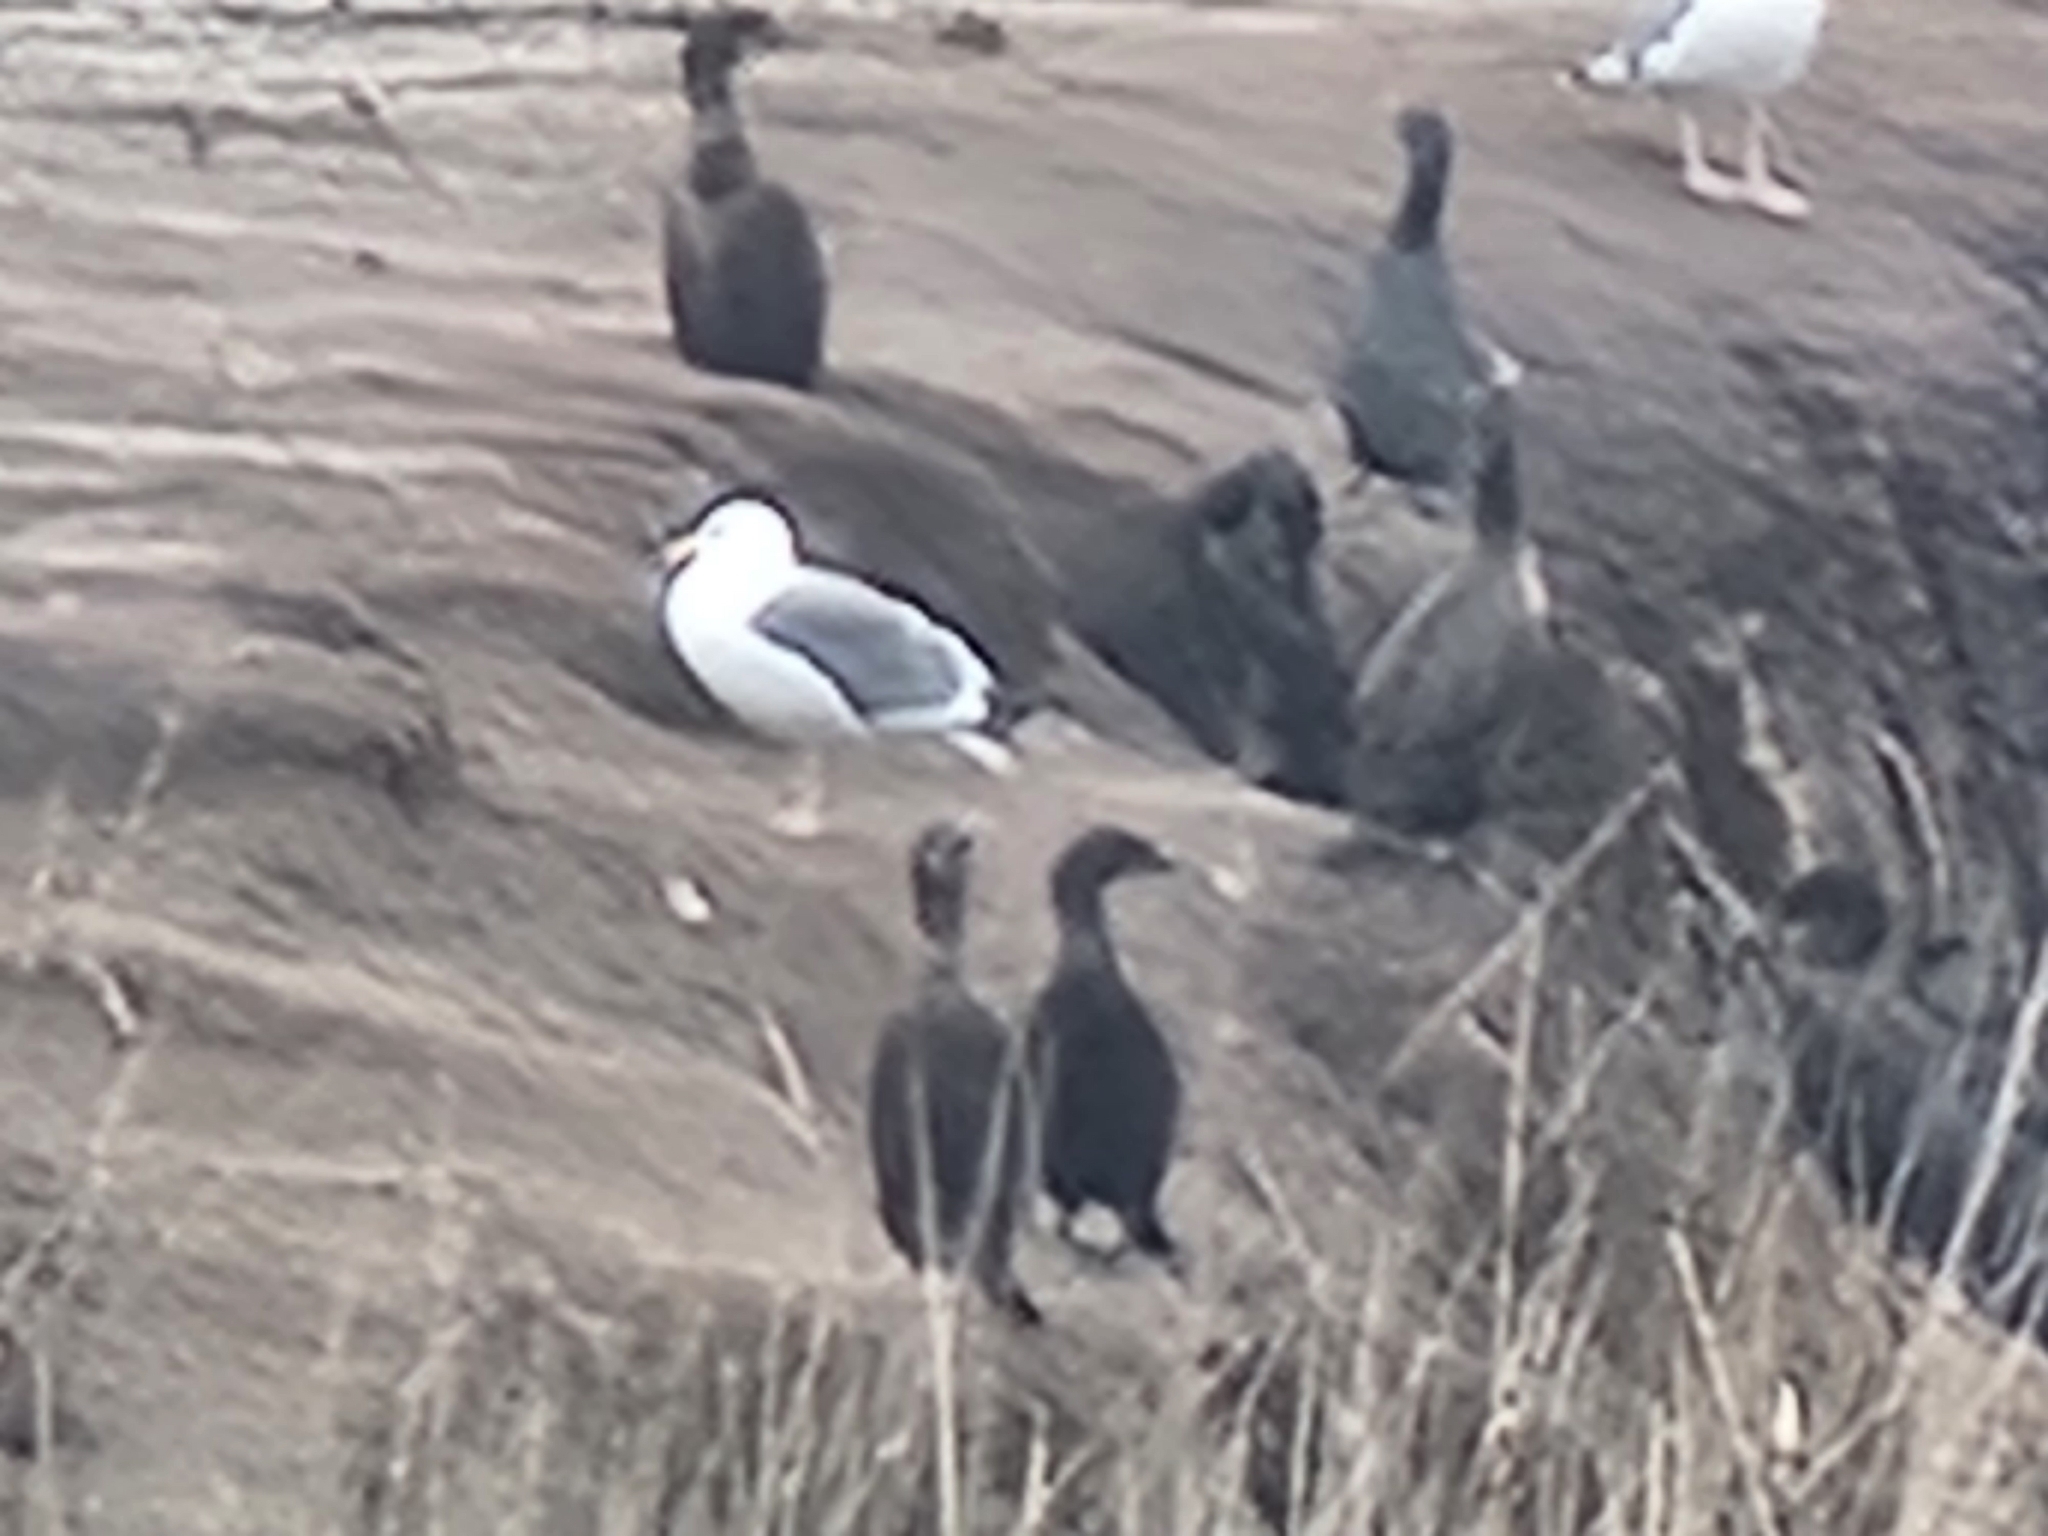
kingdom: Animalia
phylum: Chordata
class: Aves
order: Suliformes
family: Phalacrocoracidae
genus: Urile
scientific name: Urile penicillatus
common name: Brandt's cormorant
